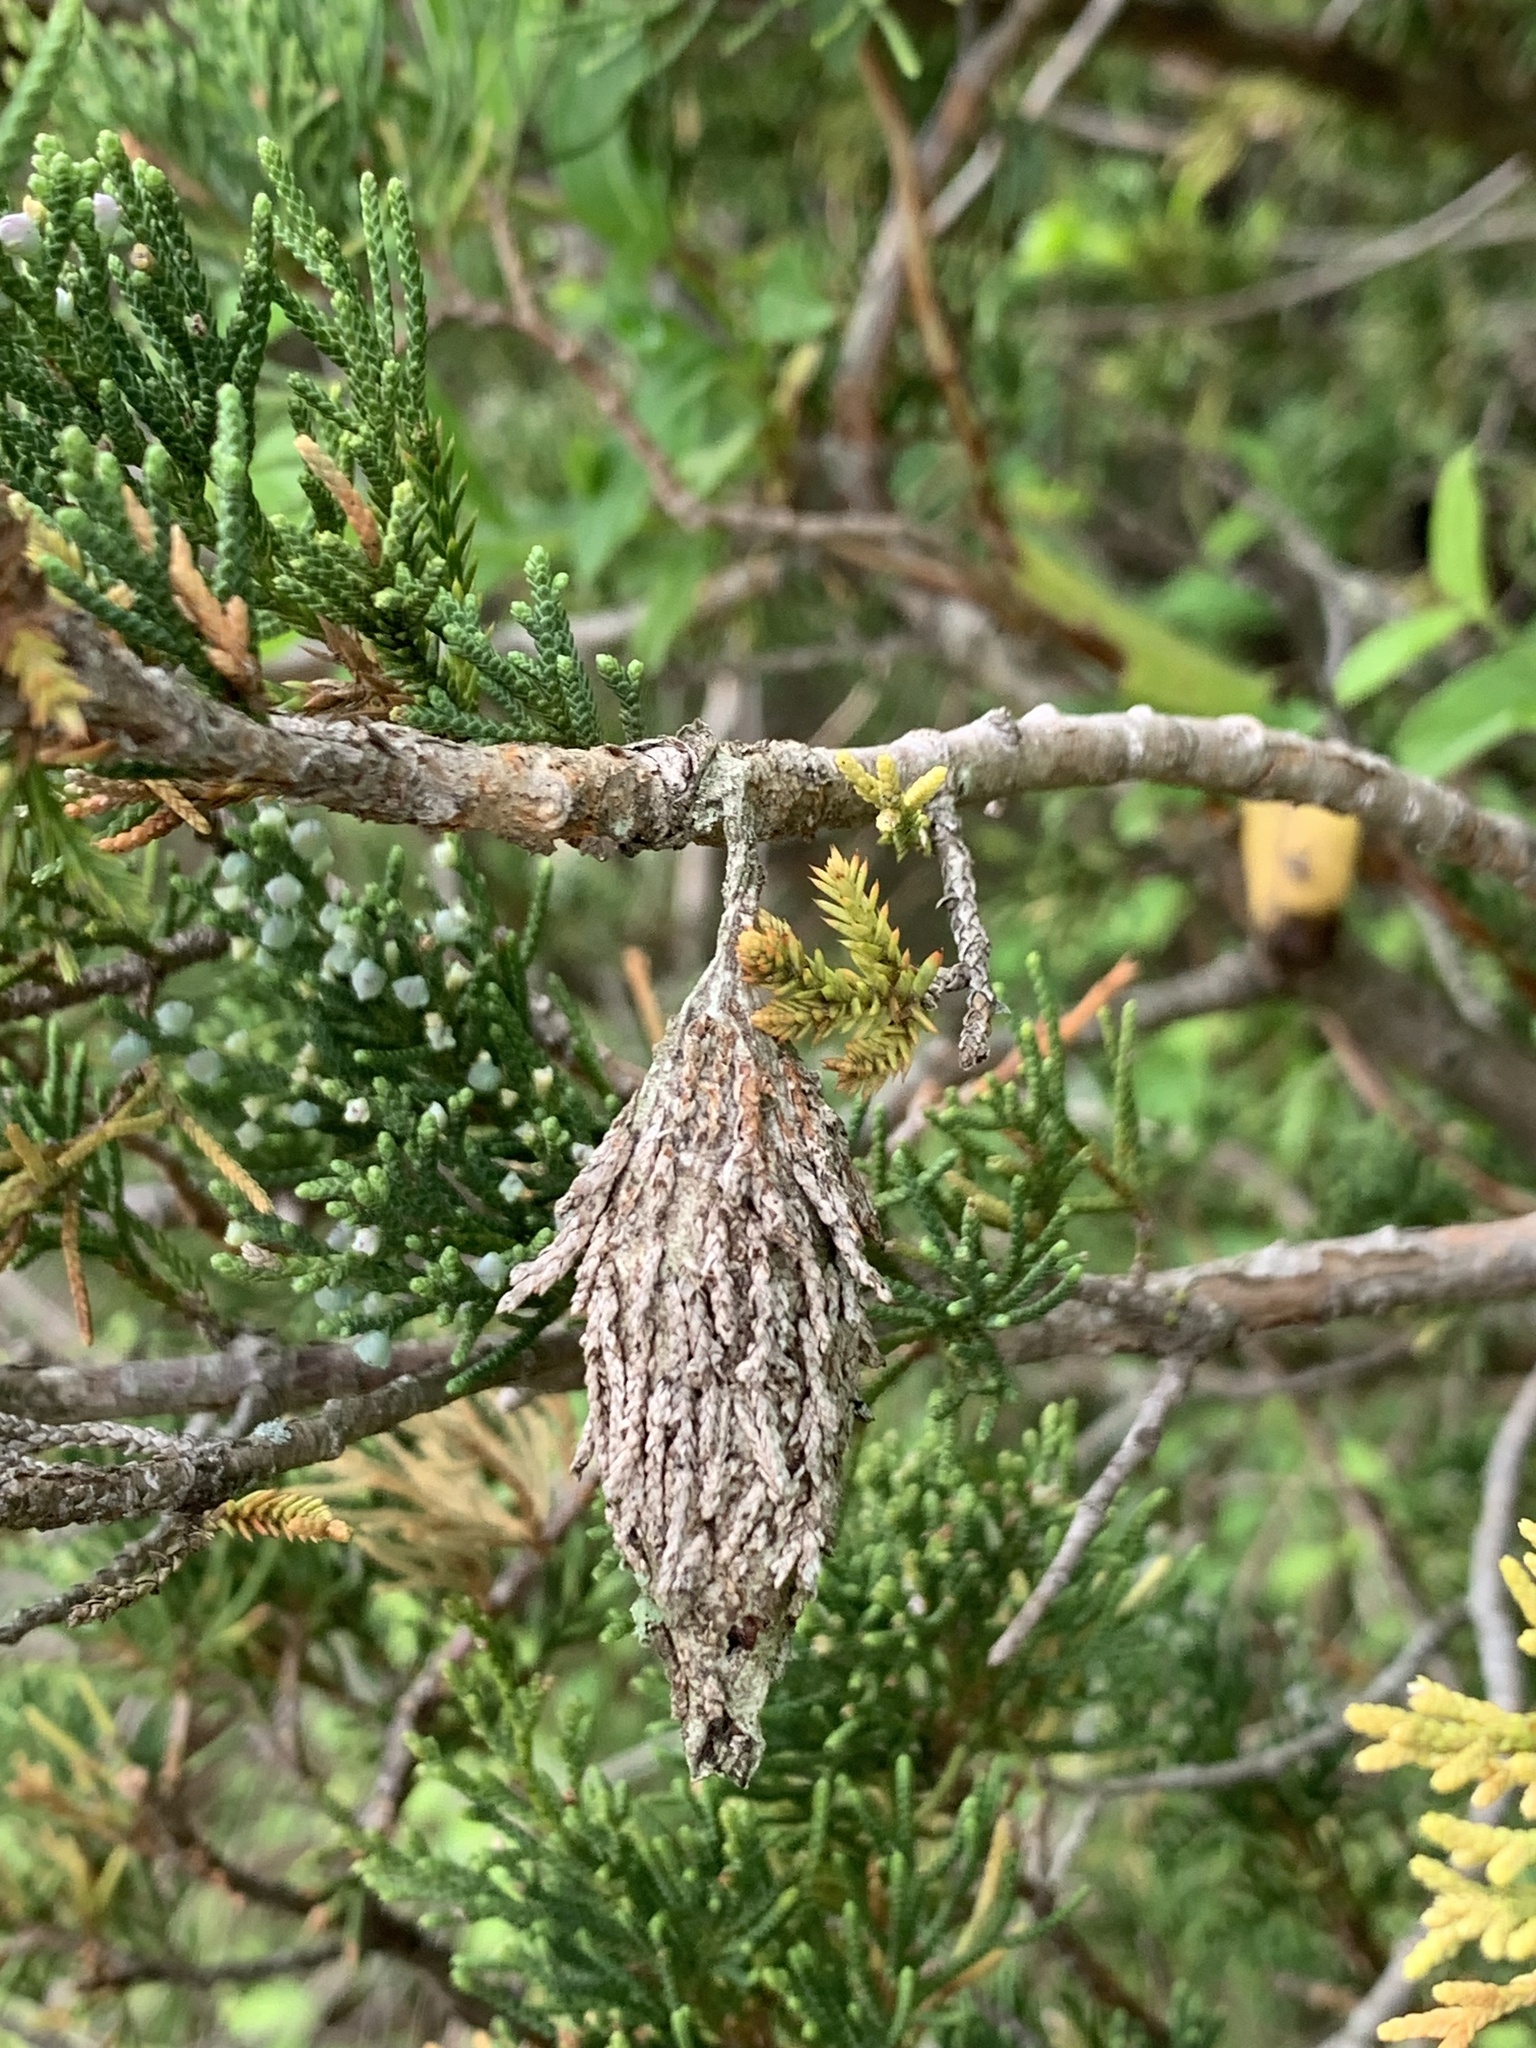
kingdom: Animalia
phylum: Arthropoda
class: Insecta
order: Lepidoptera
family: Psychidae
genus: Thyridopteryx
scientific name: Thyridopteryx ephemeraeformis
